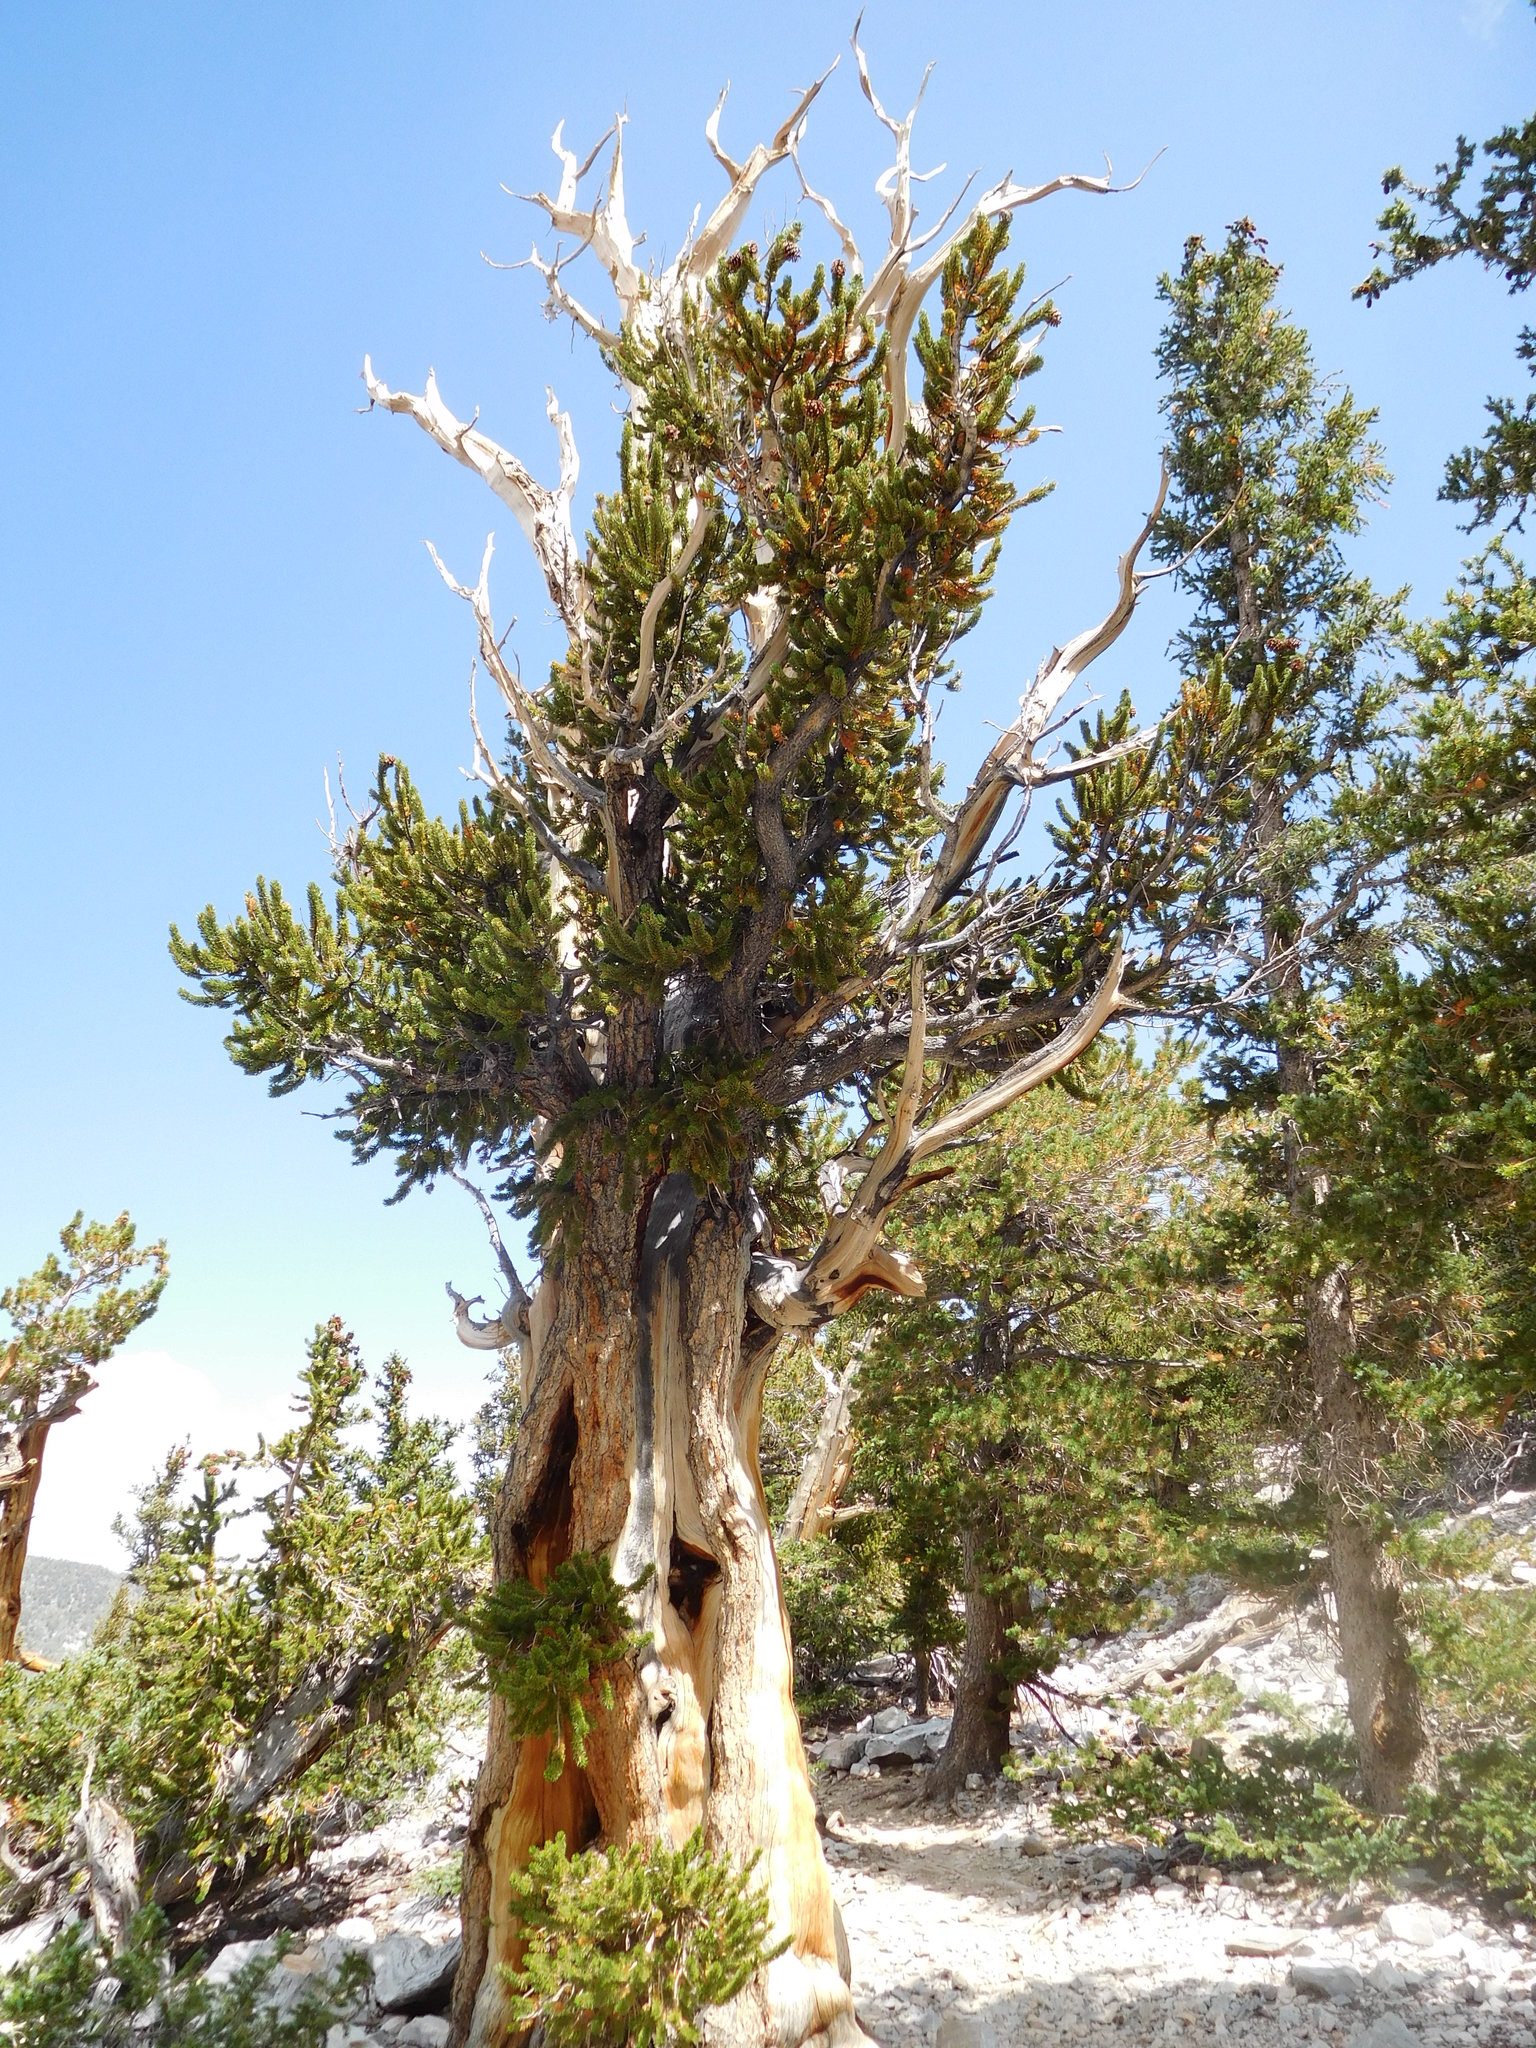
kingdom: Plantae
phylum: Tracheophyta
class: Pinopsida
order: Pinales
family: Pinaceae
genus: Pinus
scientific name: Pinus longaeva
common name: Intermountain bristlecone pine
